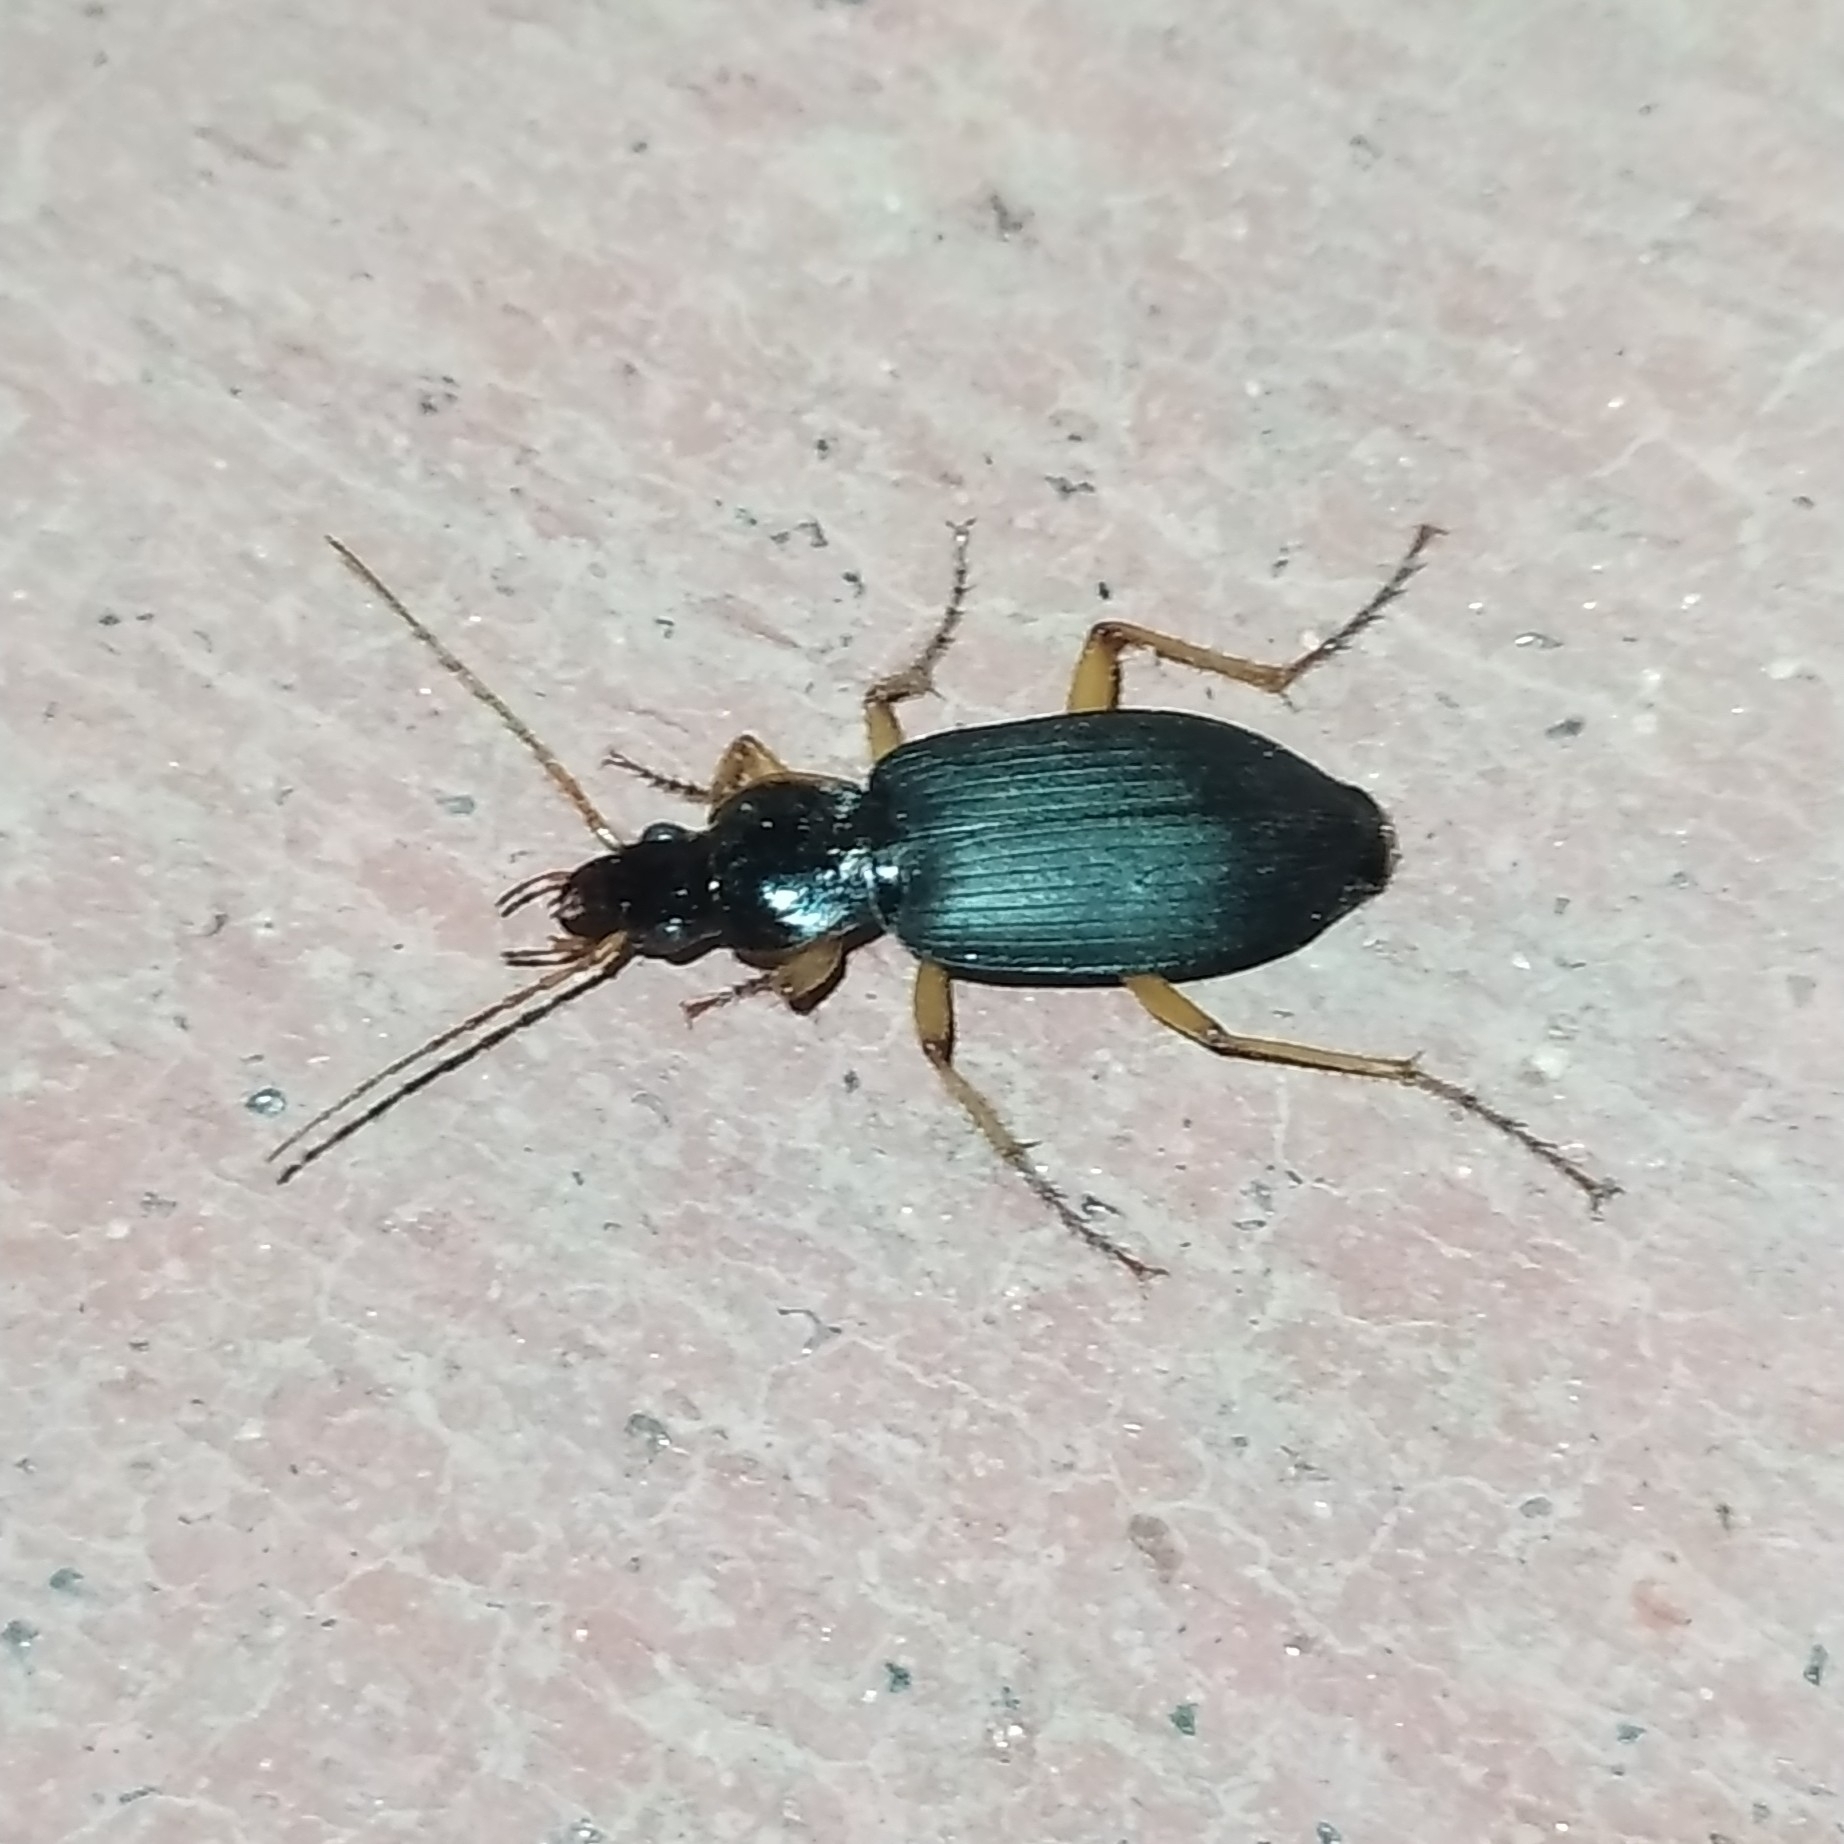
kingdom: Animalia
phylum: Arthropoda
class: Insecta
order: Coleoptera
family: Carabidae
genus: Dolichus
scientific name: Dolichus halensis
